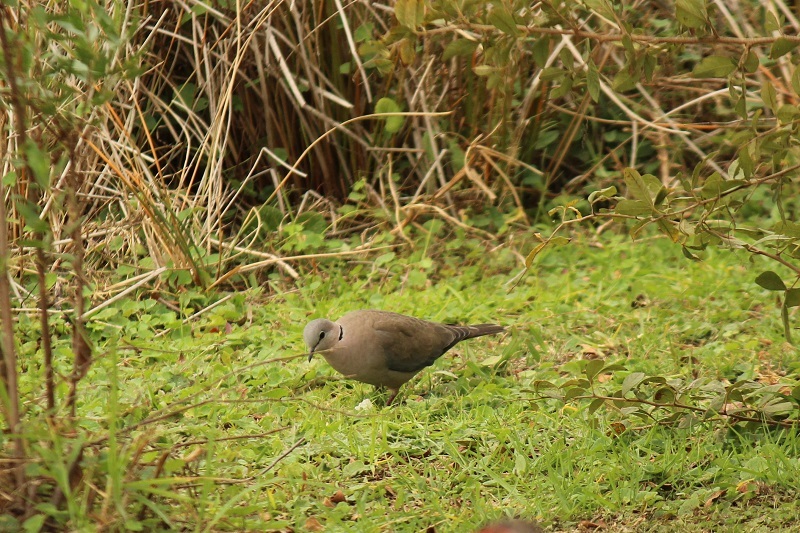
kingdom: Animalia
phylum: Chordata
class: Aves
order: Columbiformes
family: Columbidae
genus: Streptopelia
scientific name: Streptopelia capicola
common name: Ring-necked dove
